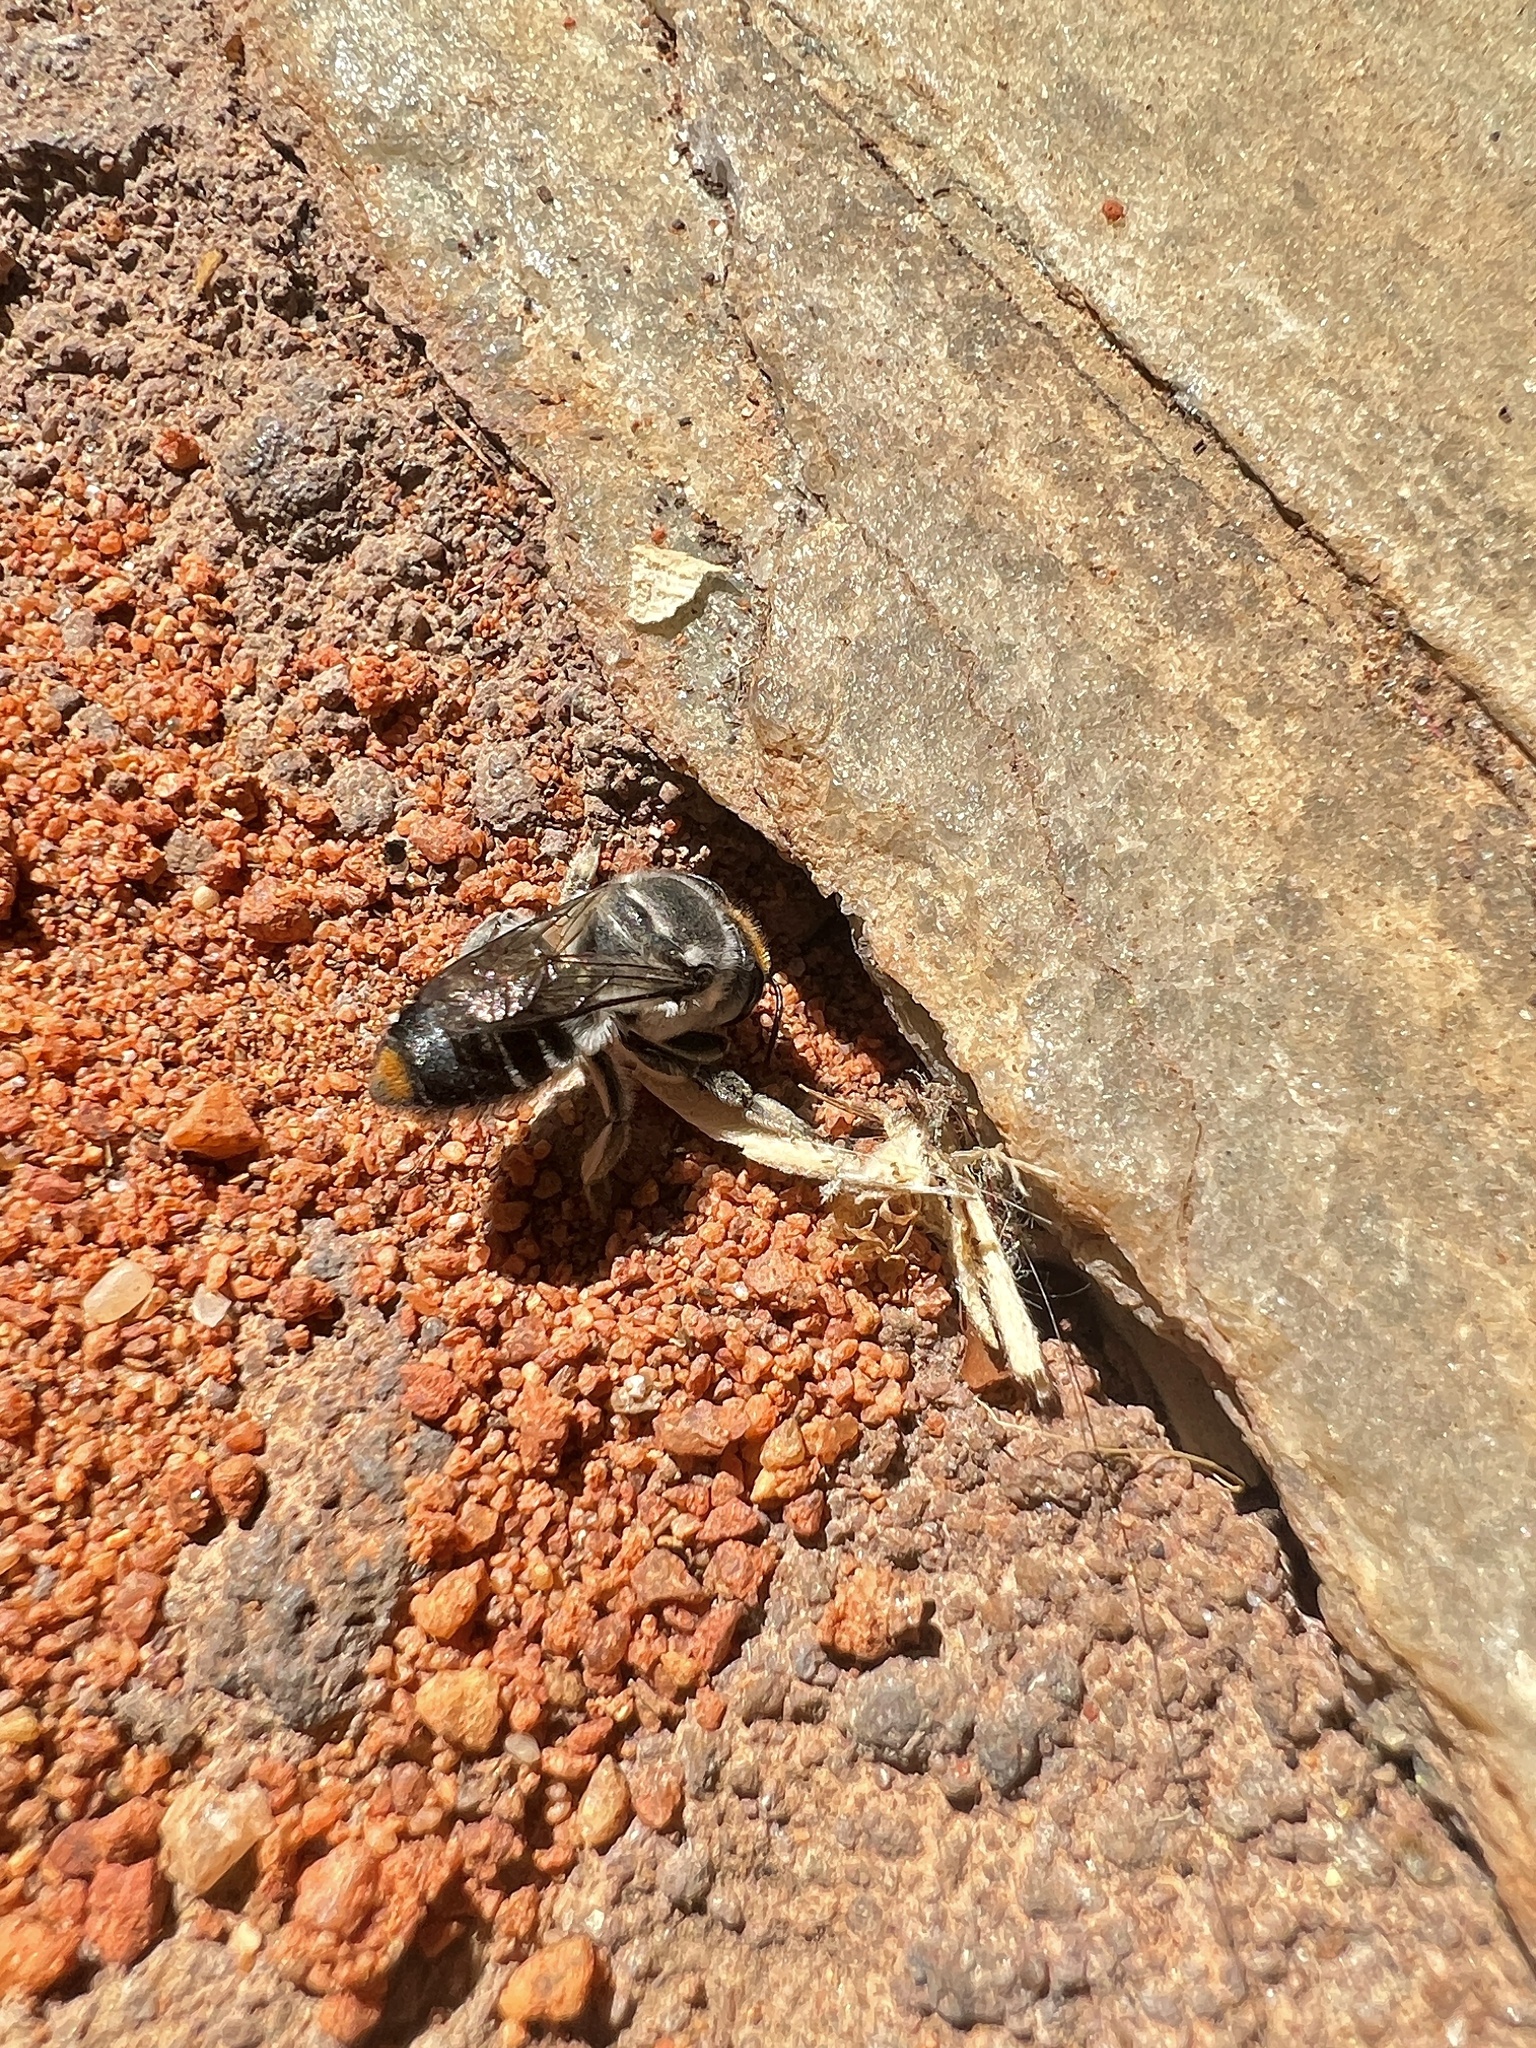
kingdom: Animalia
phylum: Arthropoda
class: Insecta
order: Hymenoptera
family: Megachilidae
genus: Megachile
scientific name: Megachile chrysopyga
